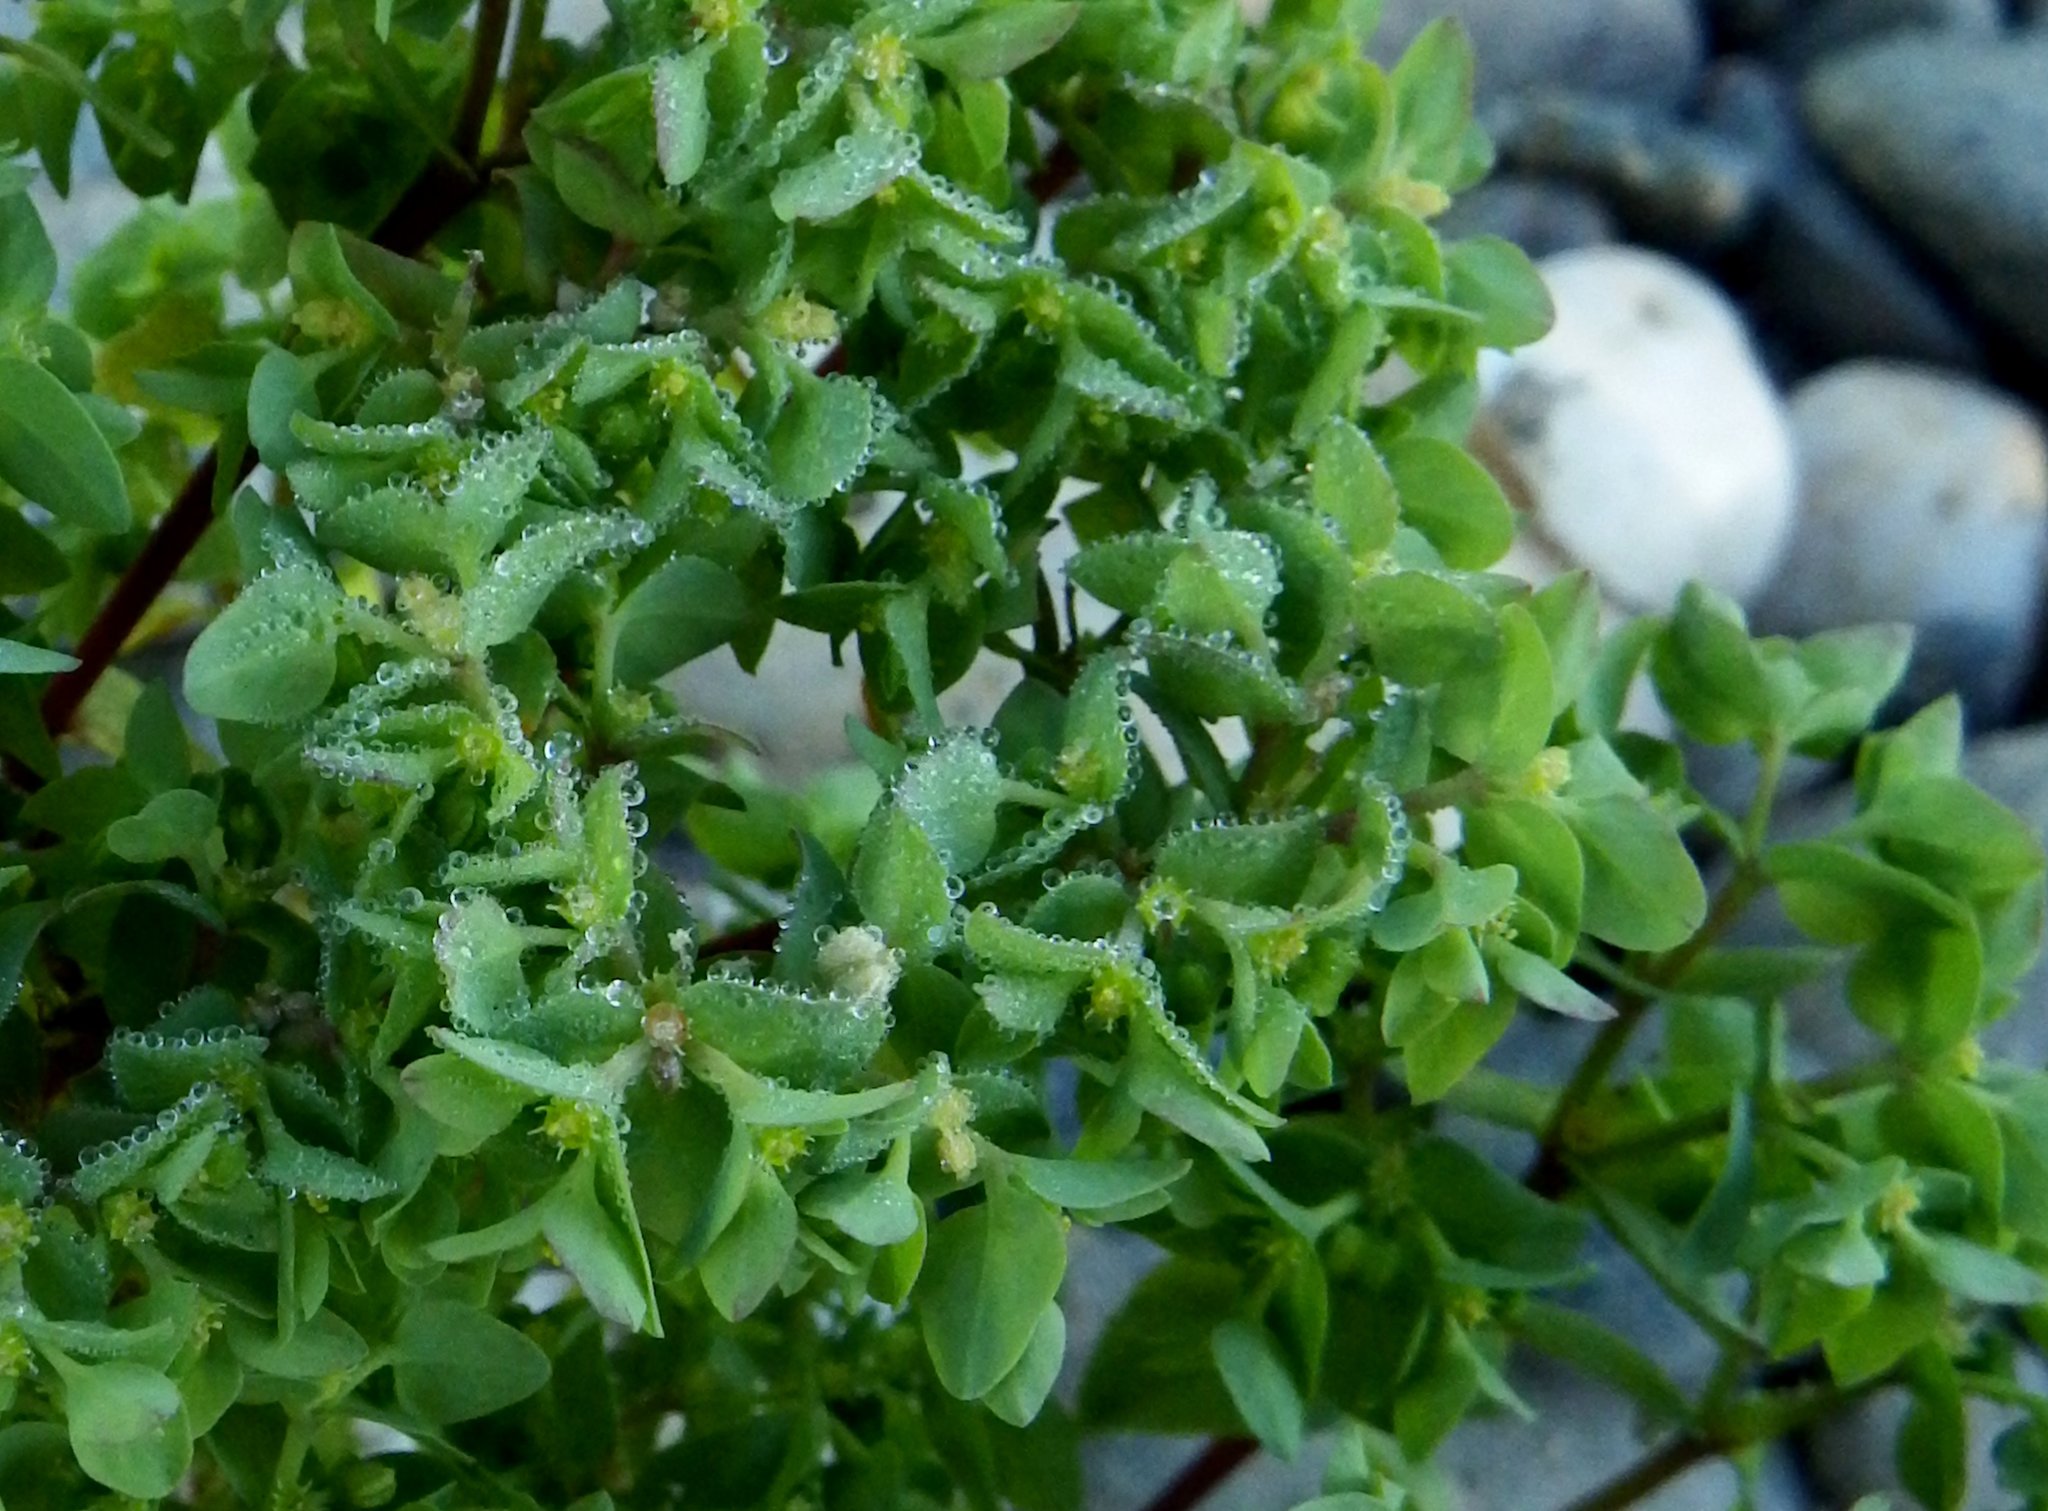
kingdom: Plantae
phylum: Tracheophyta
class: Magnoliopsida
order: Malpighiales
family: Euphorbiaceae
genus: Euphorbia
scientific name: Euphorbia peplus
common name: Petty spurge
